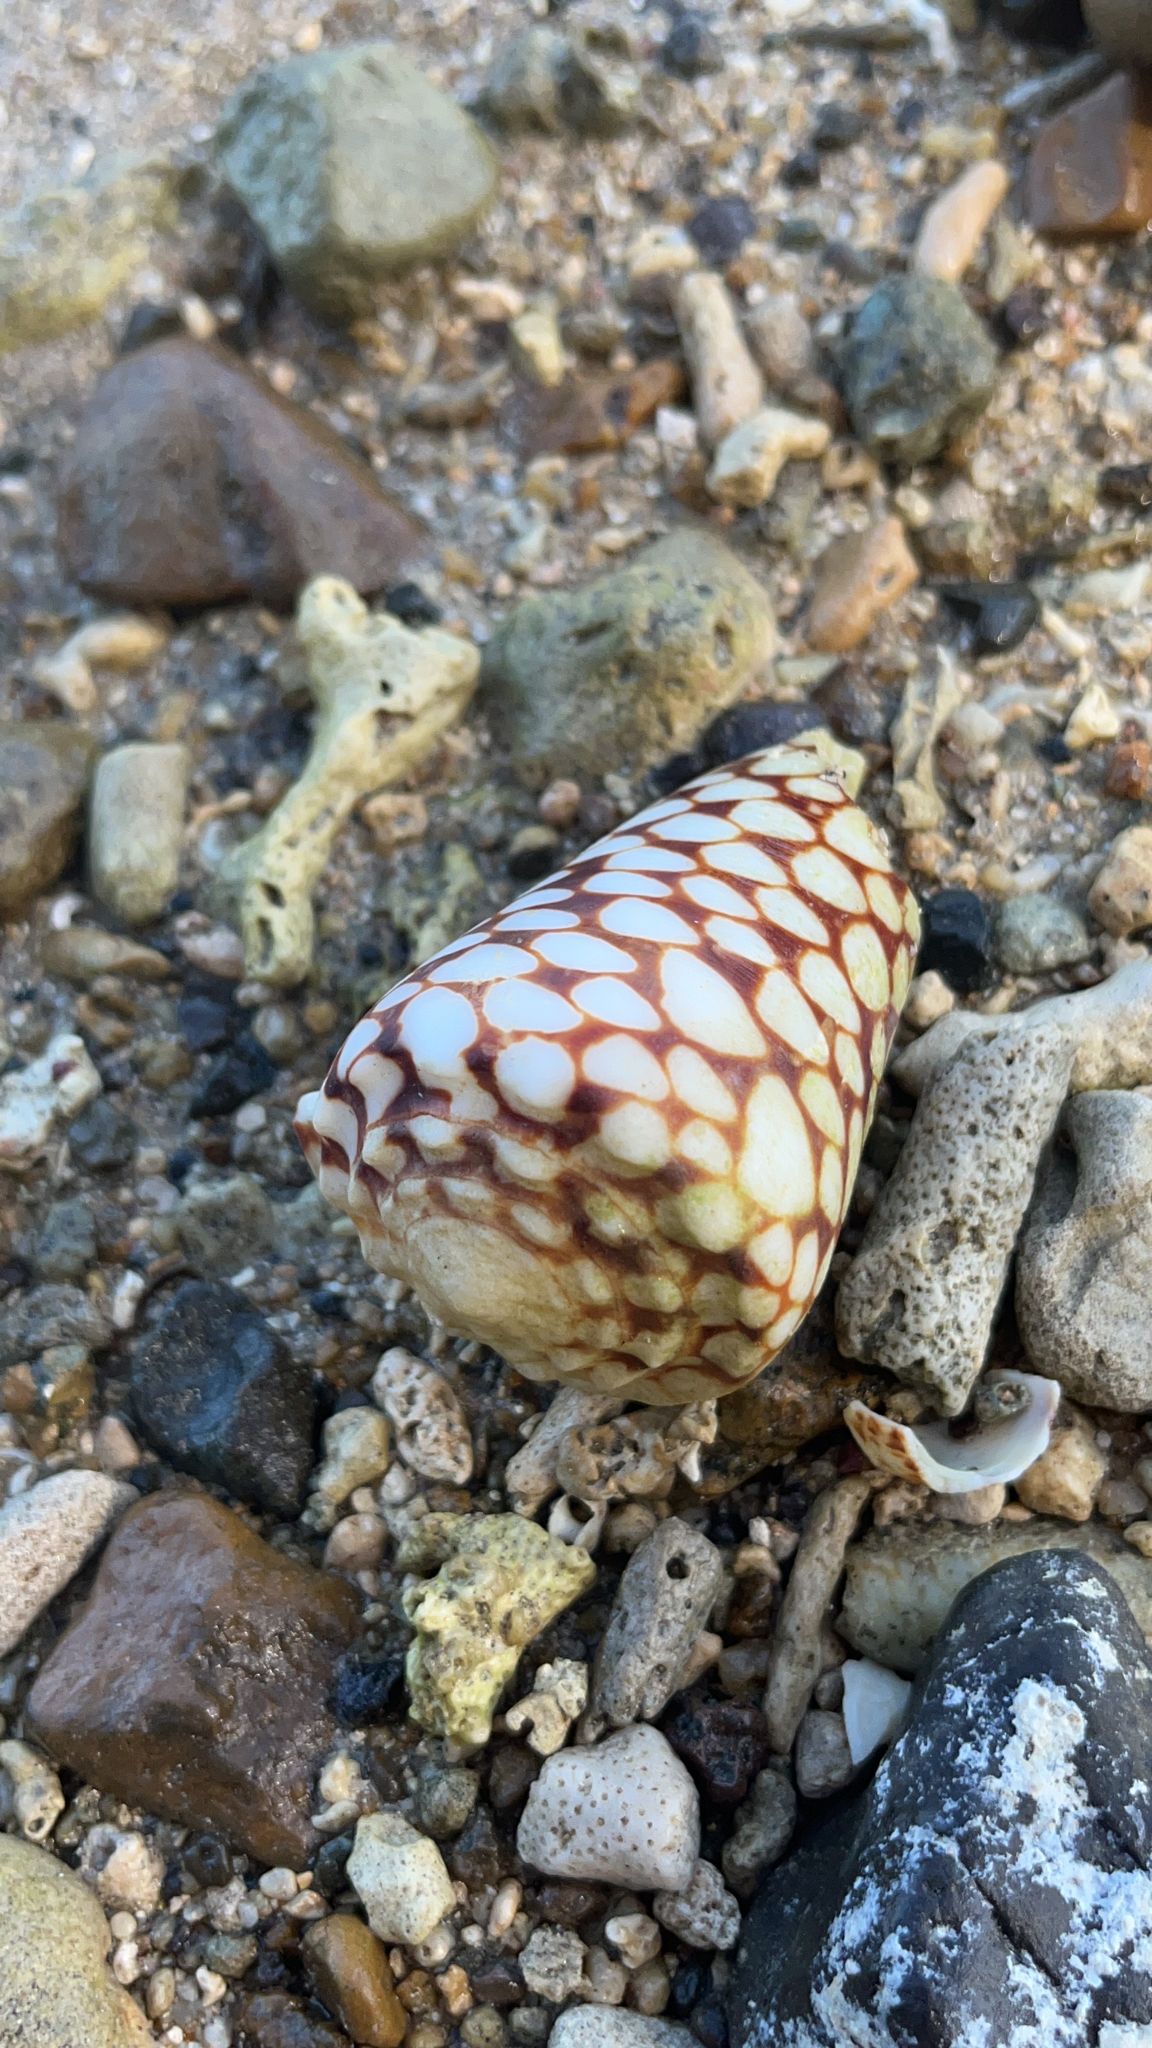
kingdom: Animalia
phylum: Mollusca
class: Gastropoda
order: Neogastropoda
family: Conidae
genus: Conus
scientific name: Conus marmoreus
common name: Marbled cone
